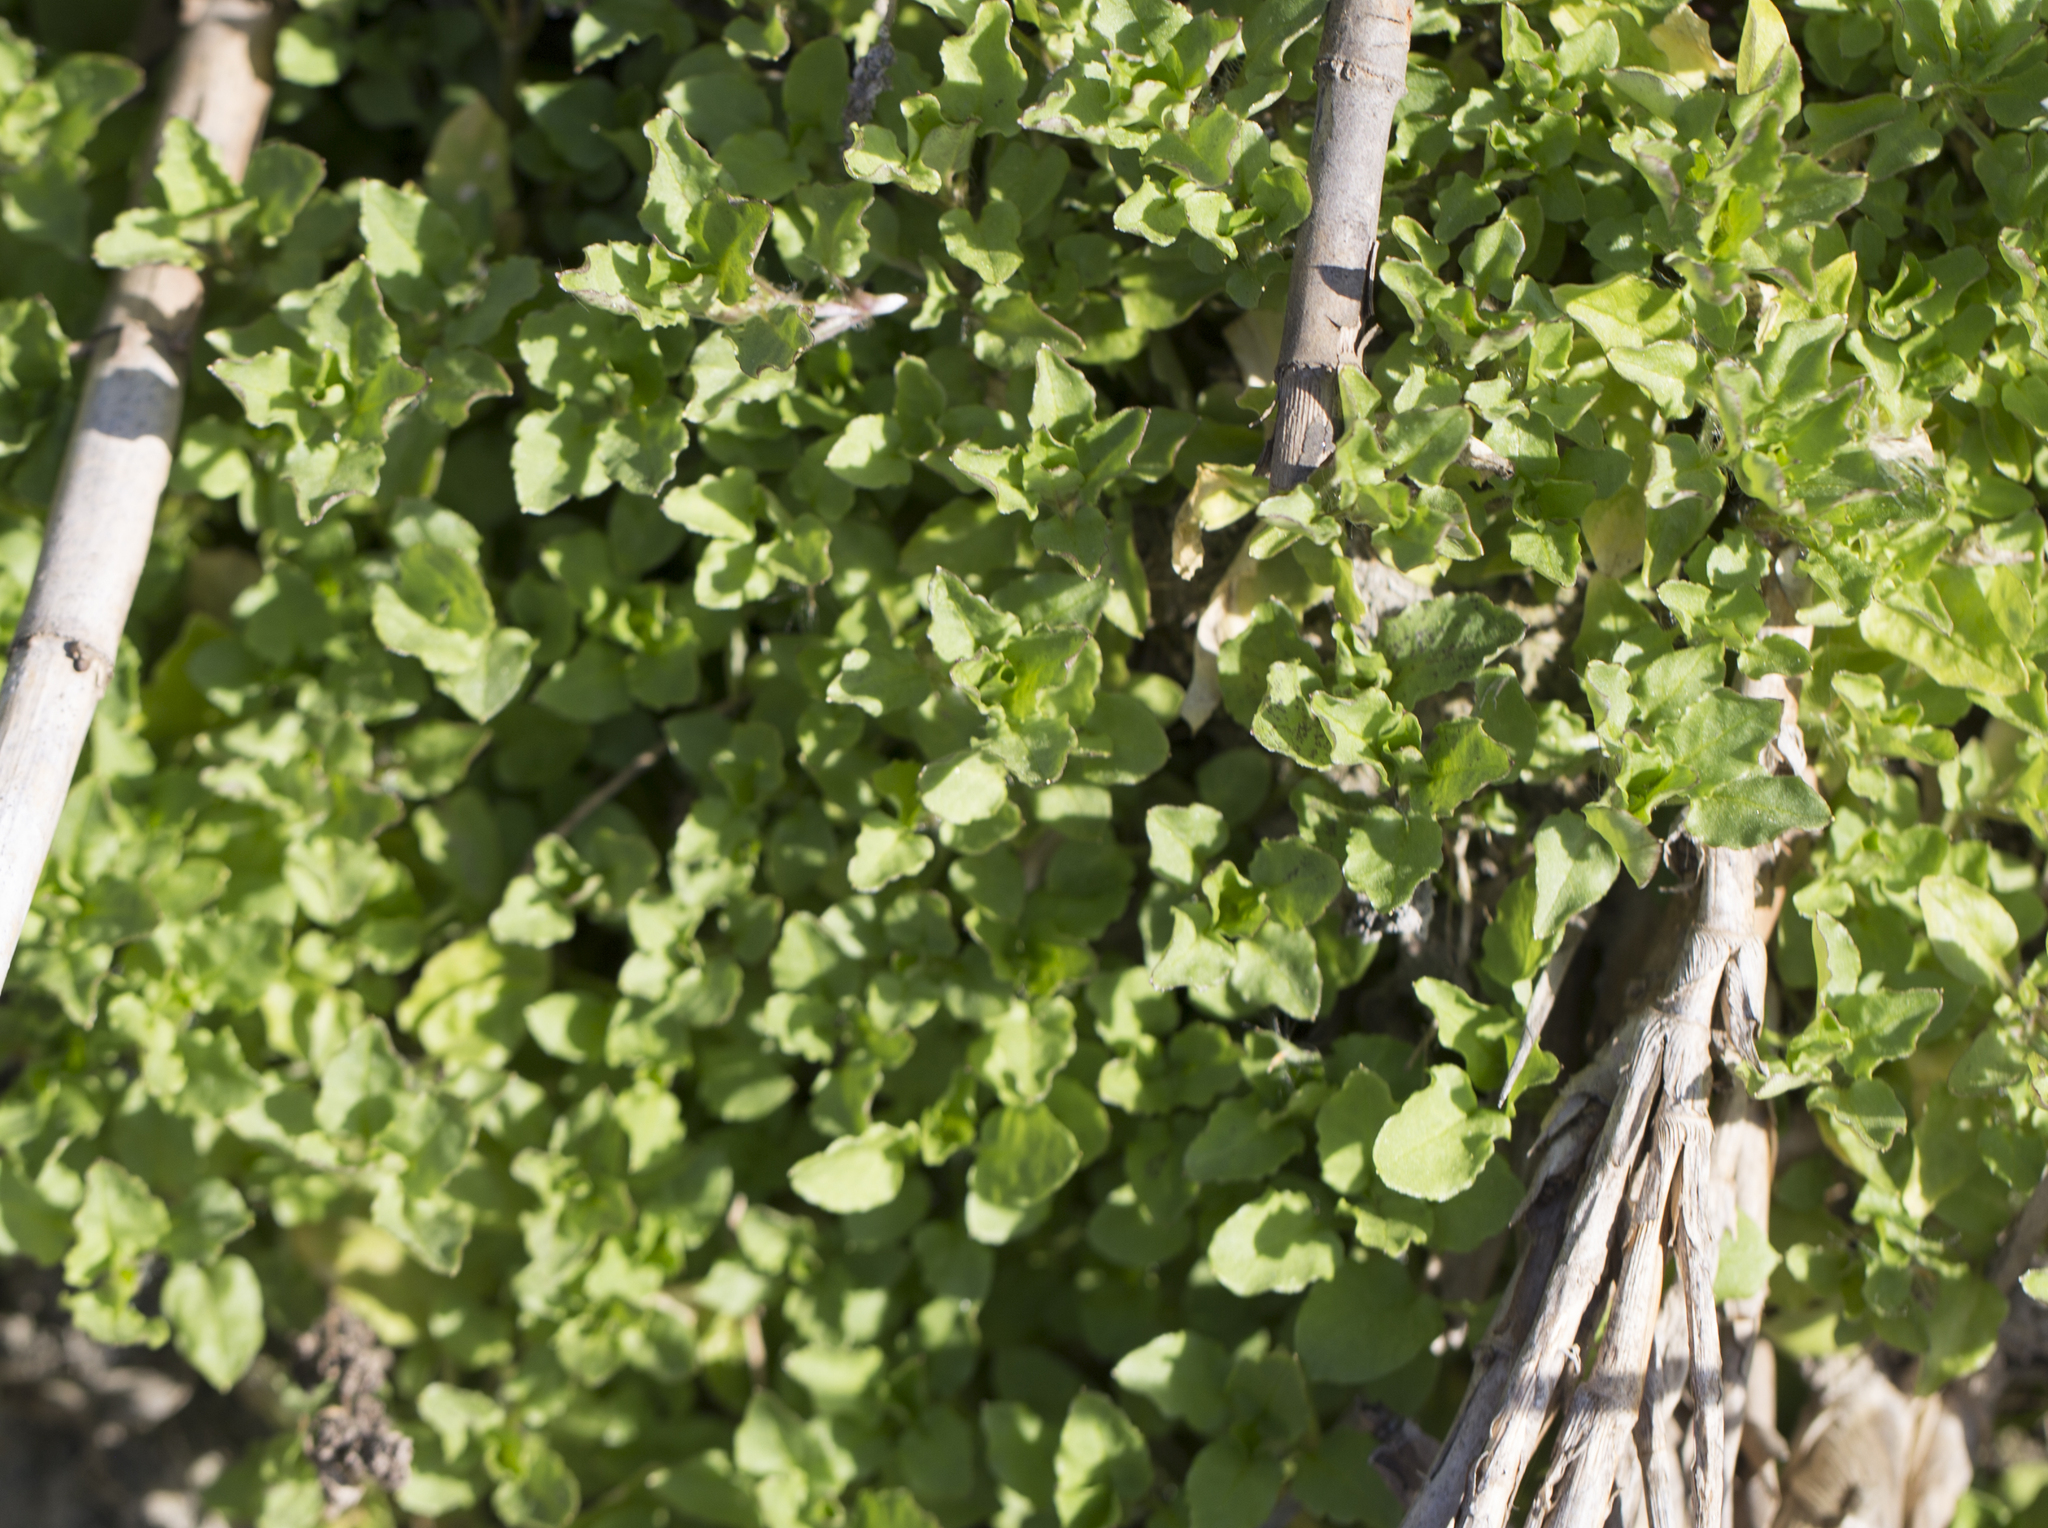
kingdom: Plantae
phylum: Tracheophyta
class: Magnoliopsida
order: Caryophyllales
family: Caryophyllaceae
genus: Stellaria
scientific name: Stellaria aquatica
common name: Water chickweed
